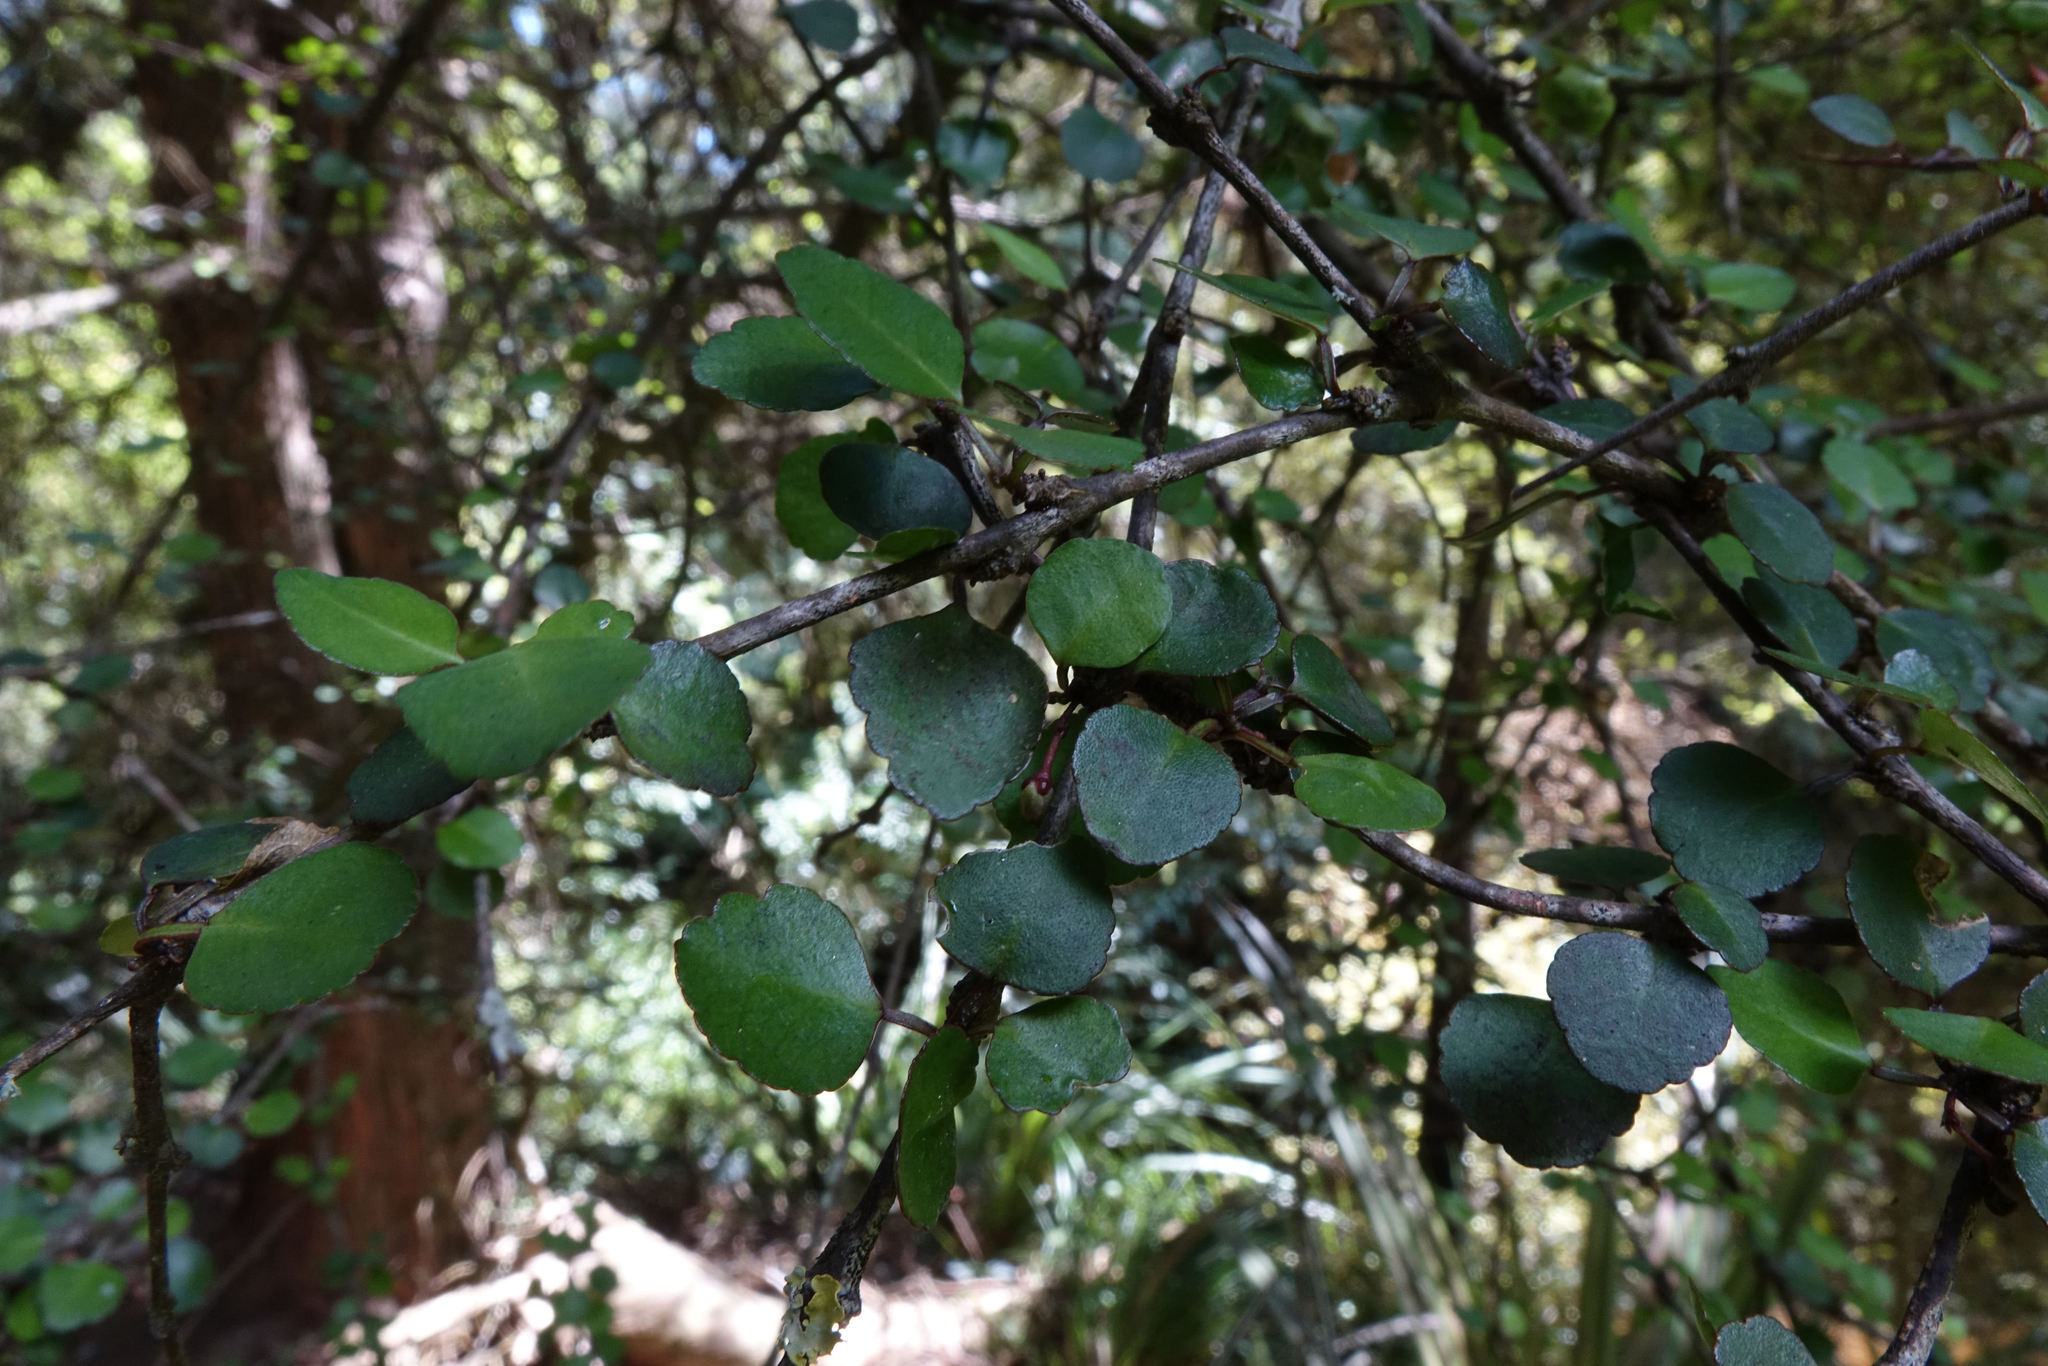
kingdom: Plantae
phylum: Tracheophyta
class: Magnoliopsida
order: Sapindales
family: Rutaceae
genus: Melicope
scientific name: Melicope simplex
